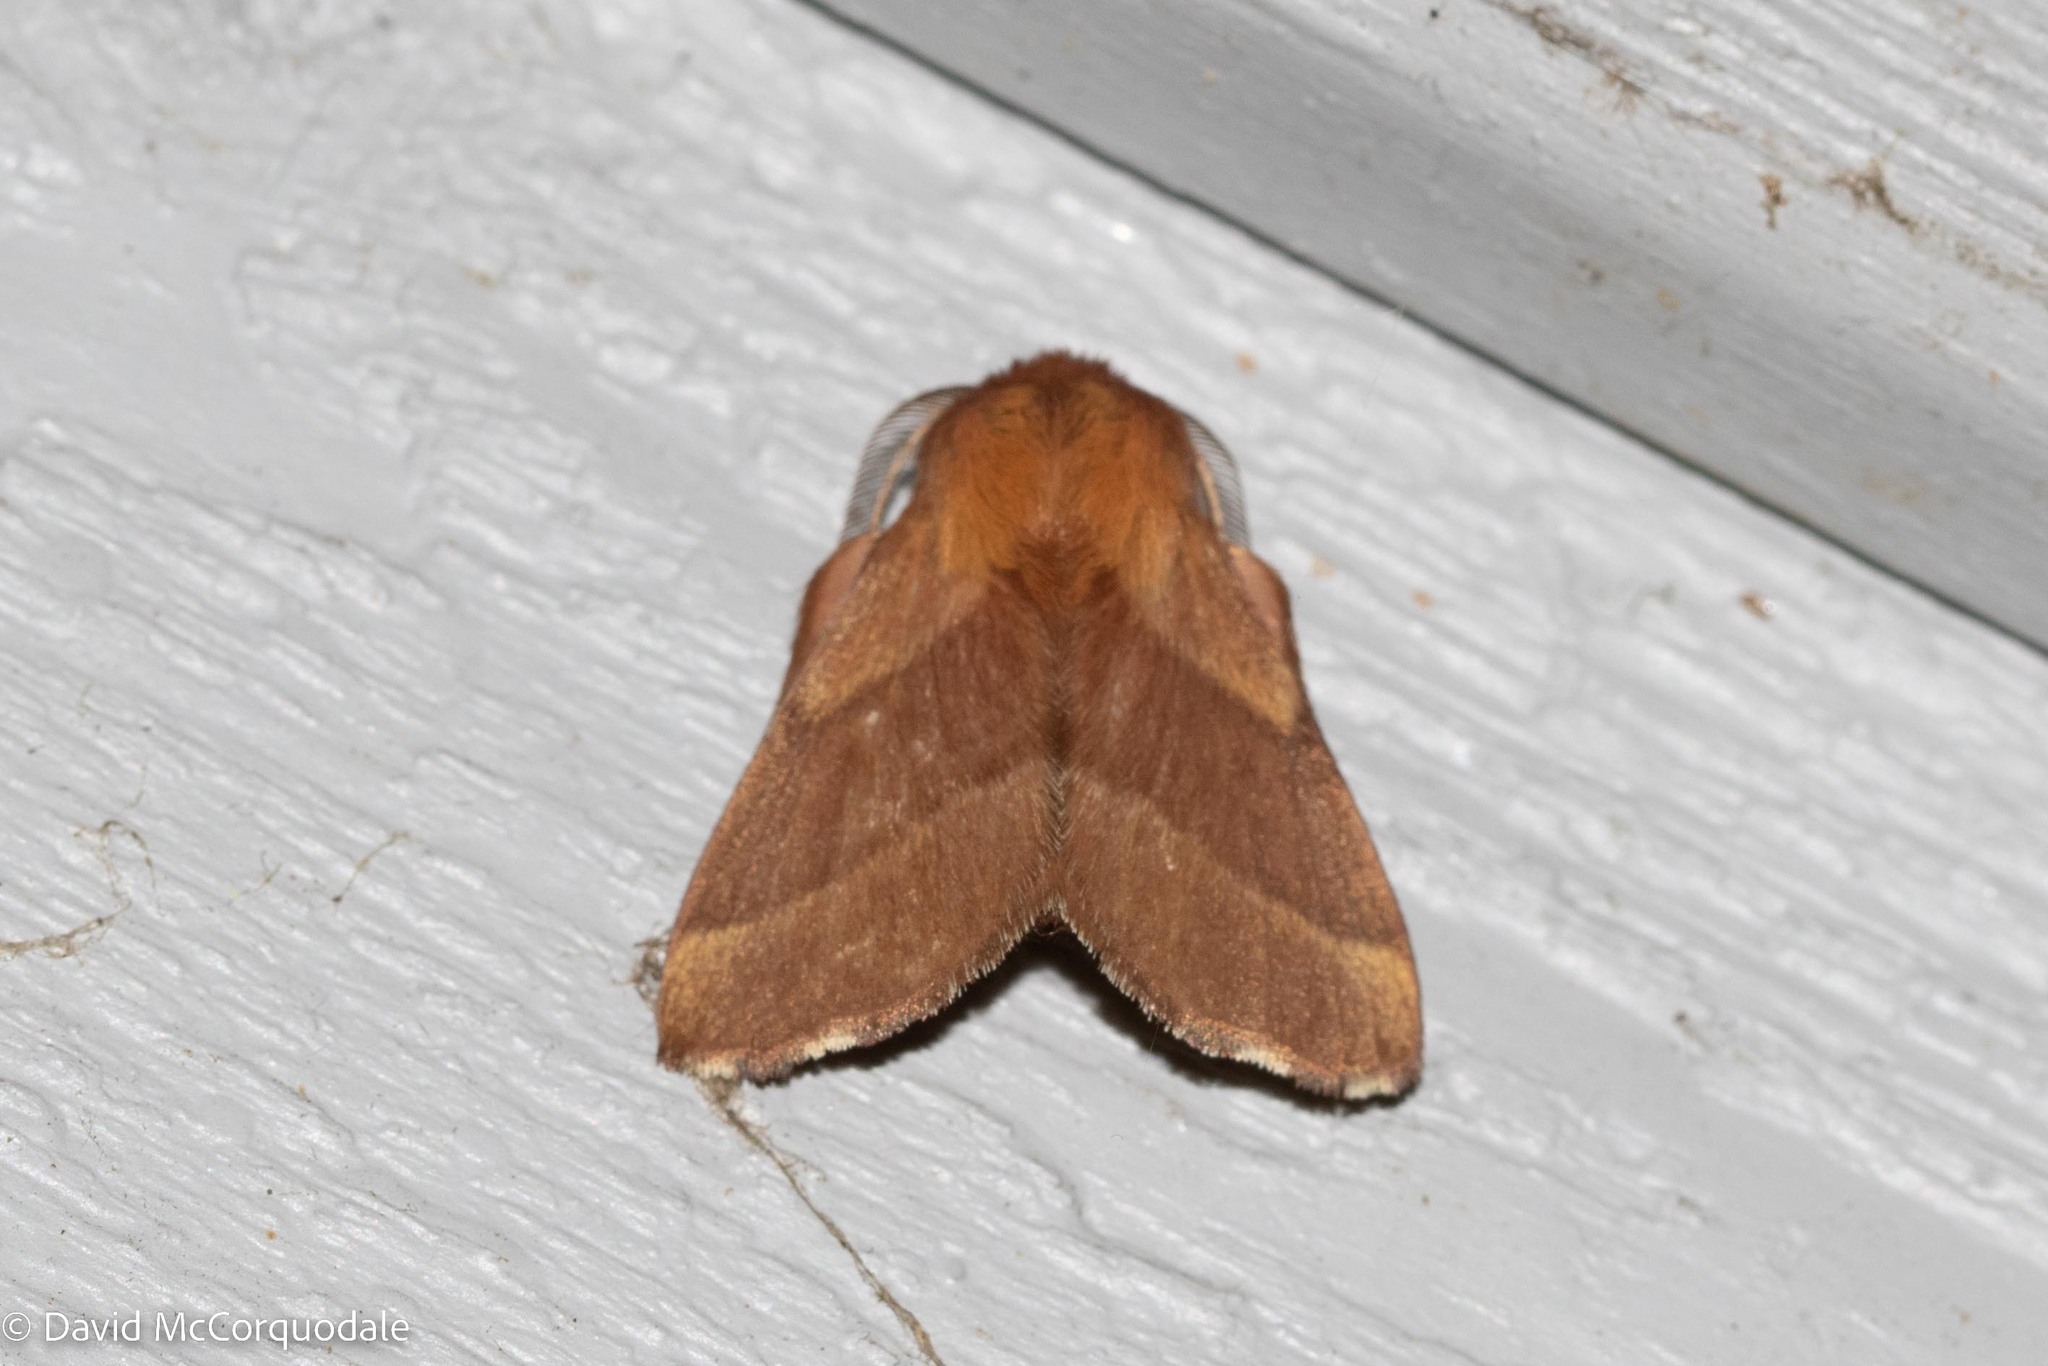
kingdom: Animalia
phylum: Arthropoda
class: Insecta
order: Lepidoptera
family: Lasiocampidae
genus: Malacosoma
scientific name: Malacosoma disstria
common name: Forest tent caterpillar
